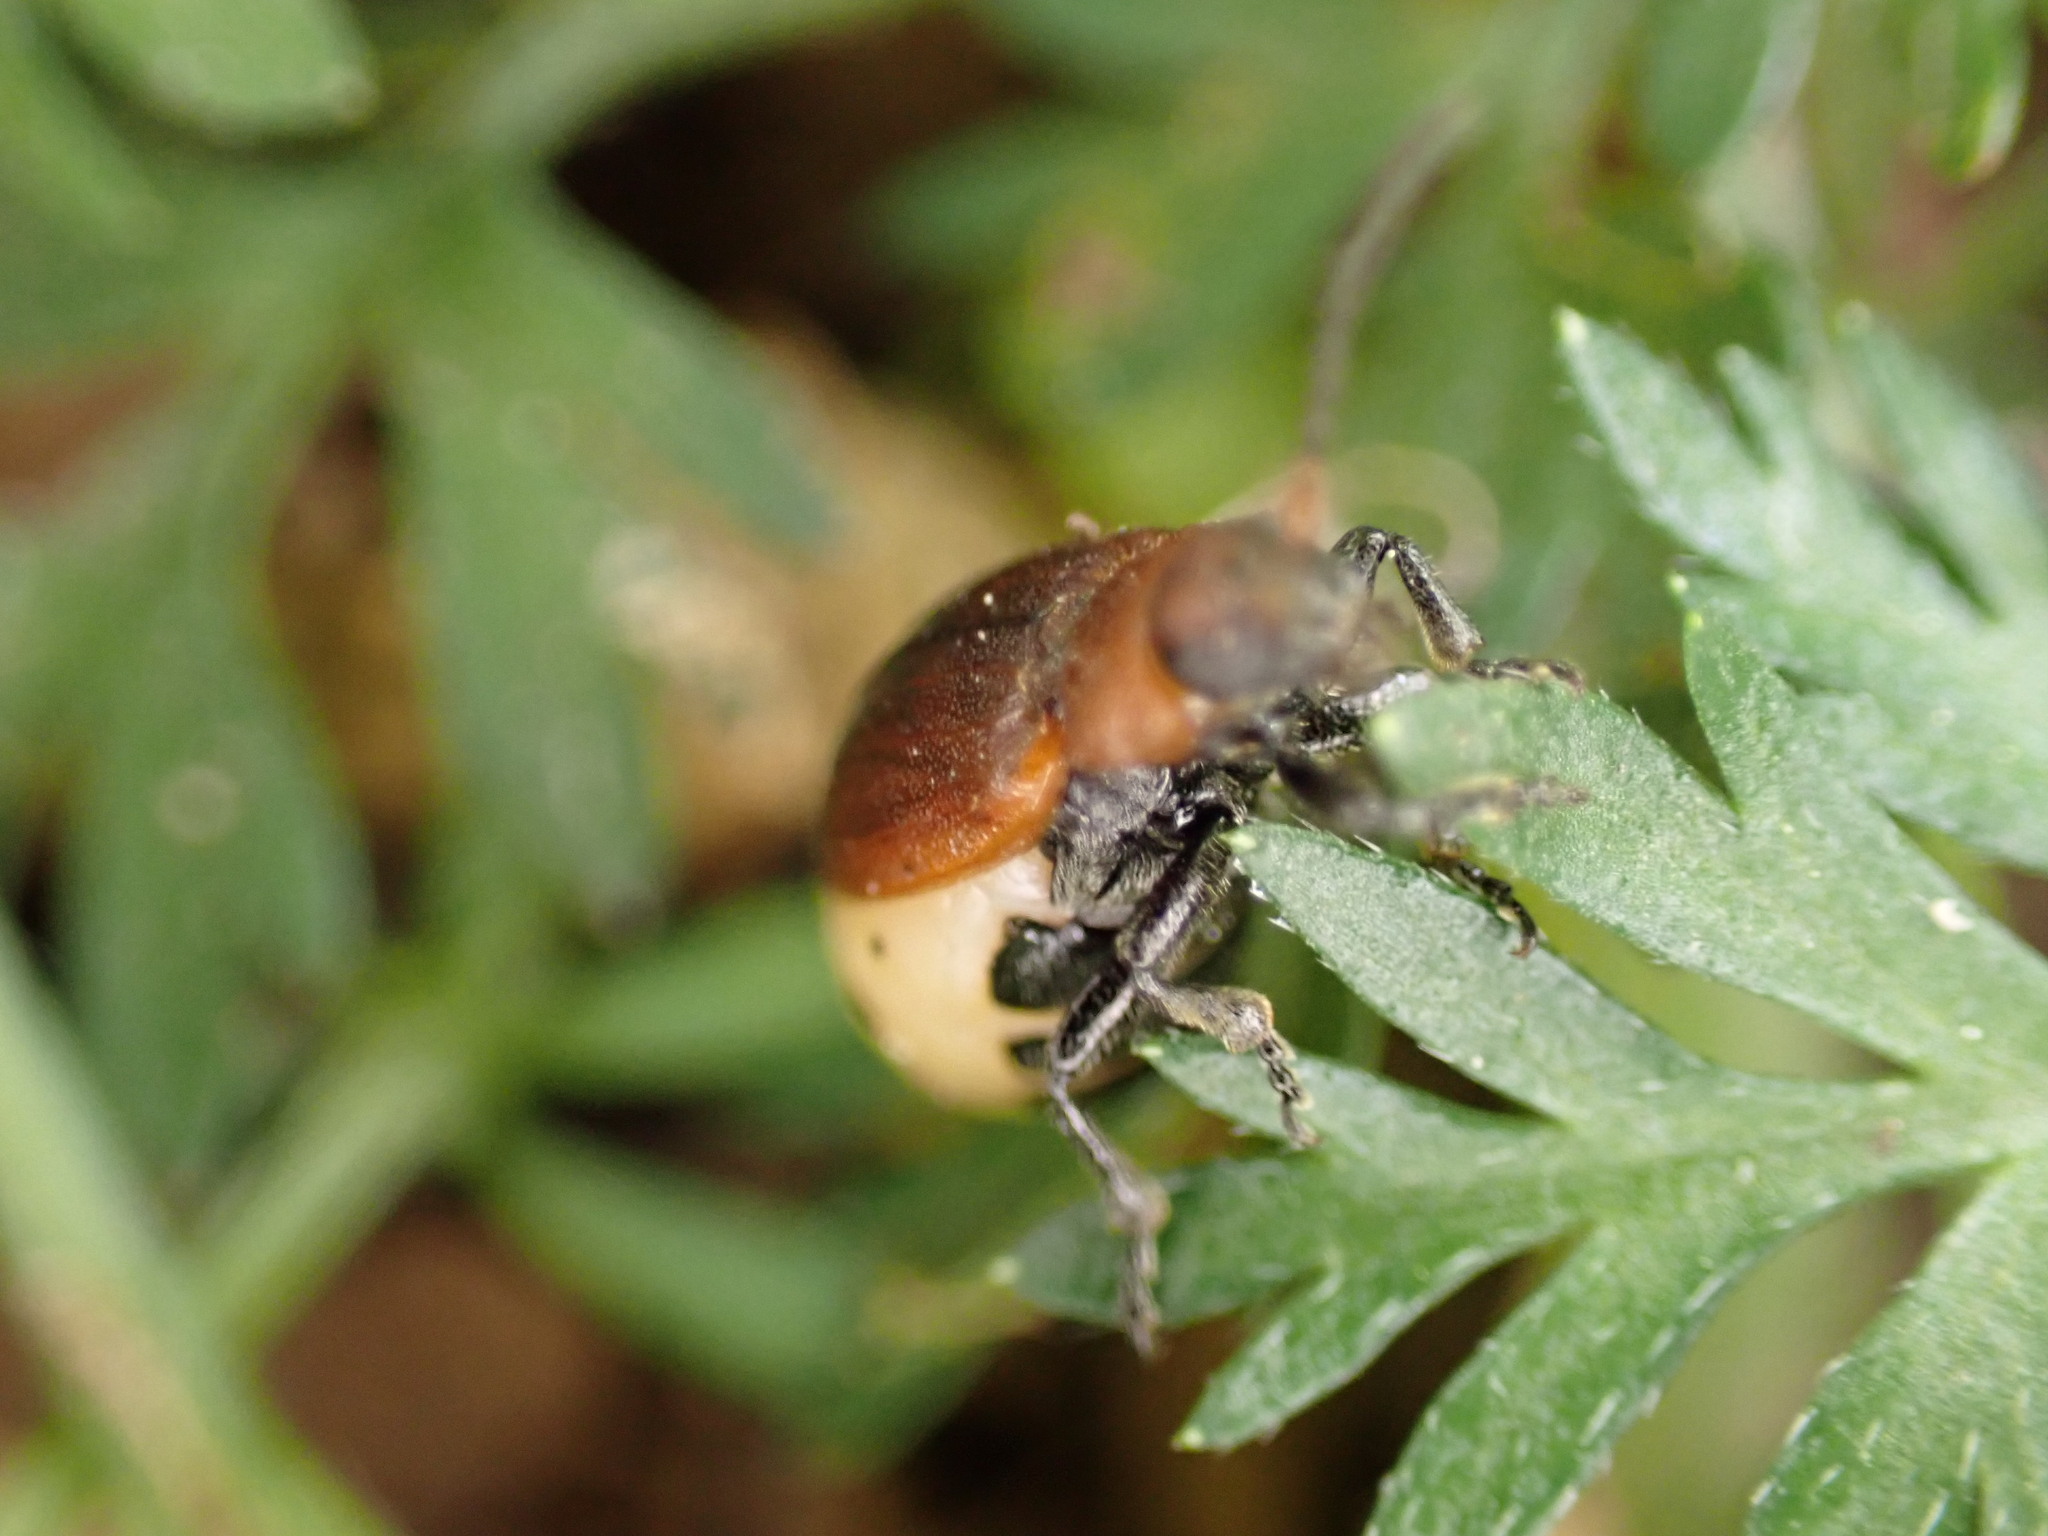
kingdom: Animalia
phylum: Arthropoda
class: Insecta
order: Coleoptera
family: Chrysomelidae
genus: Emarhopa
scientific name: Emarhopa rufa
